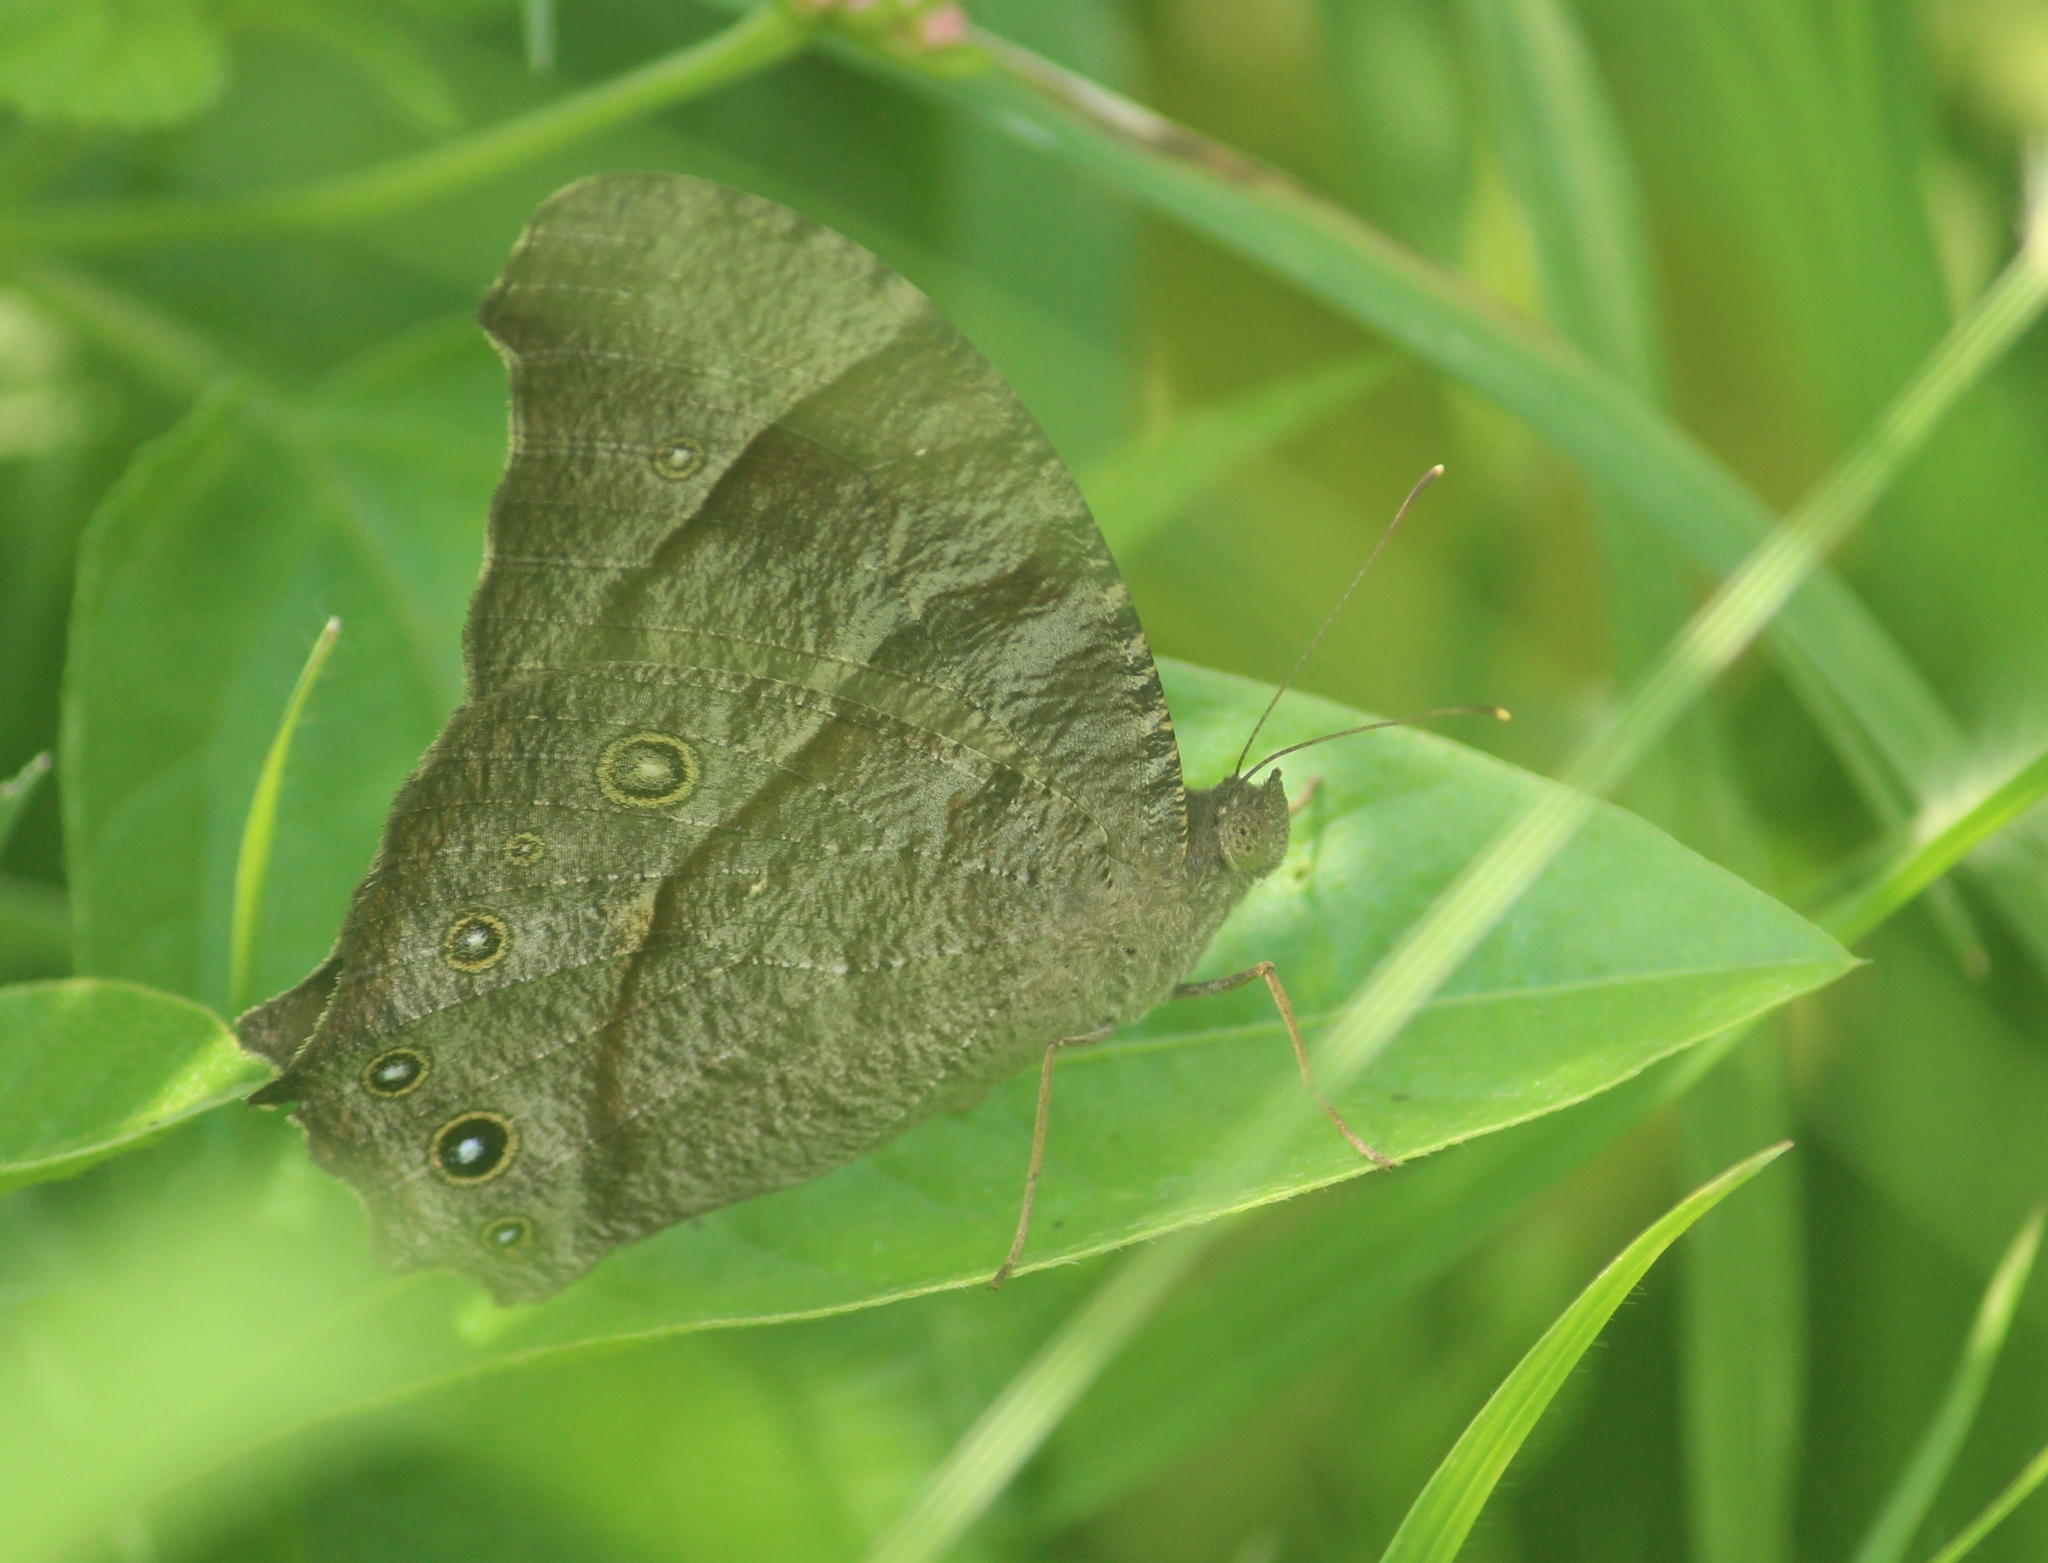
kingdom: Animalia
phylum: Arthropoda
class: Insecta
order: Lepidoptera
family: Nymphalidae
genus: Melanitis
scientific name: Melanitis leda
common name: Twilight brown
